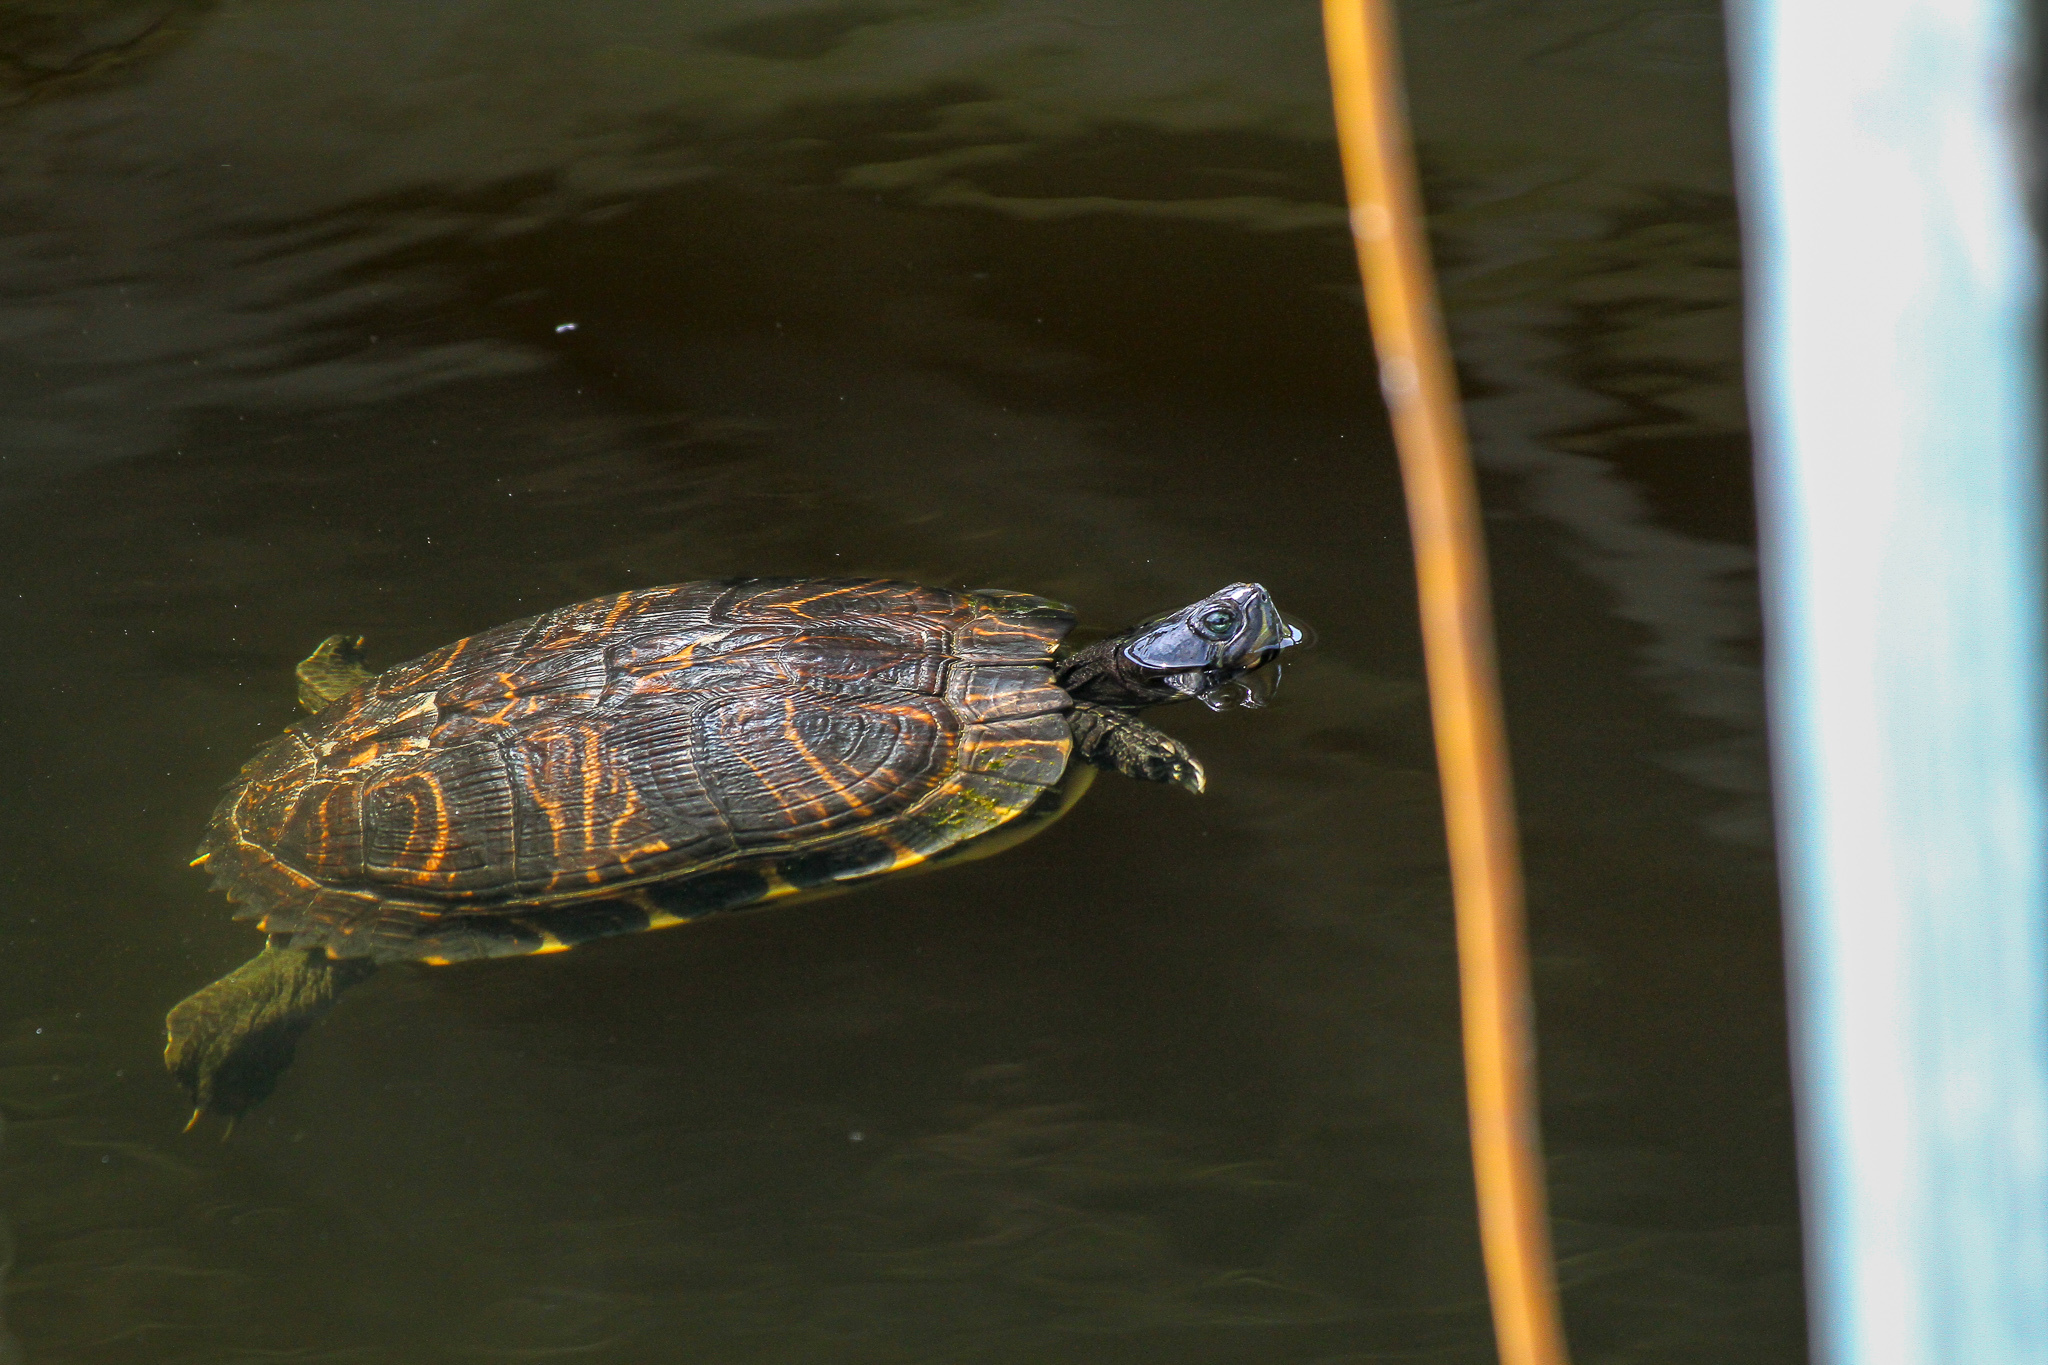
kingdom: Animalia
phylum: Chordata
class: Testudines
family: Emydidae
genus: Trachemys
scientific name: Trachemys scripta
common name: Slider
